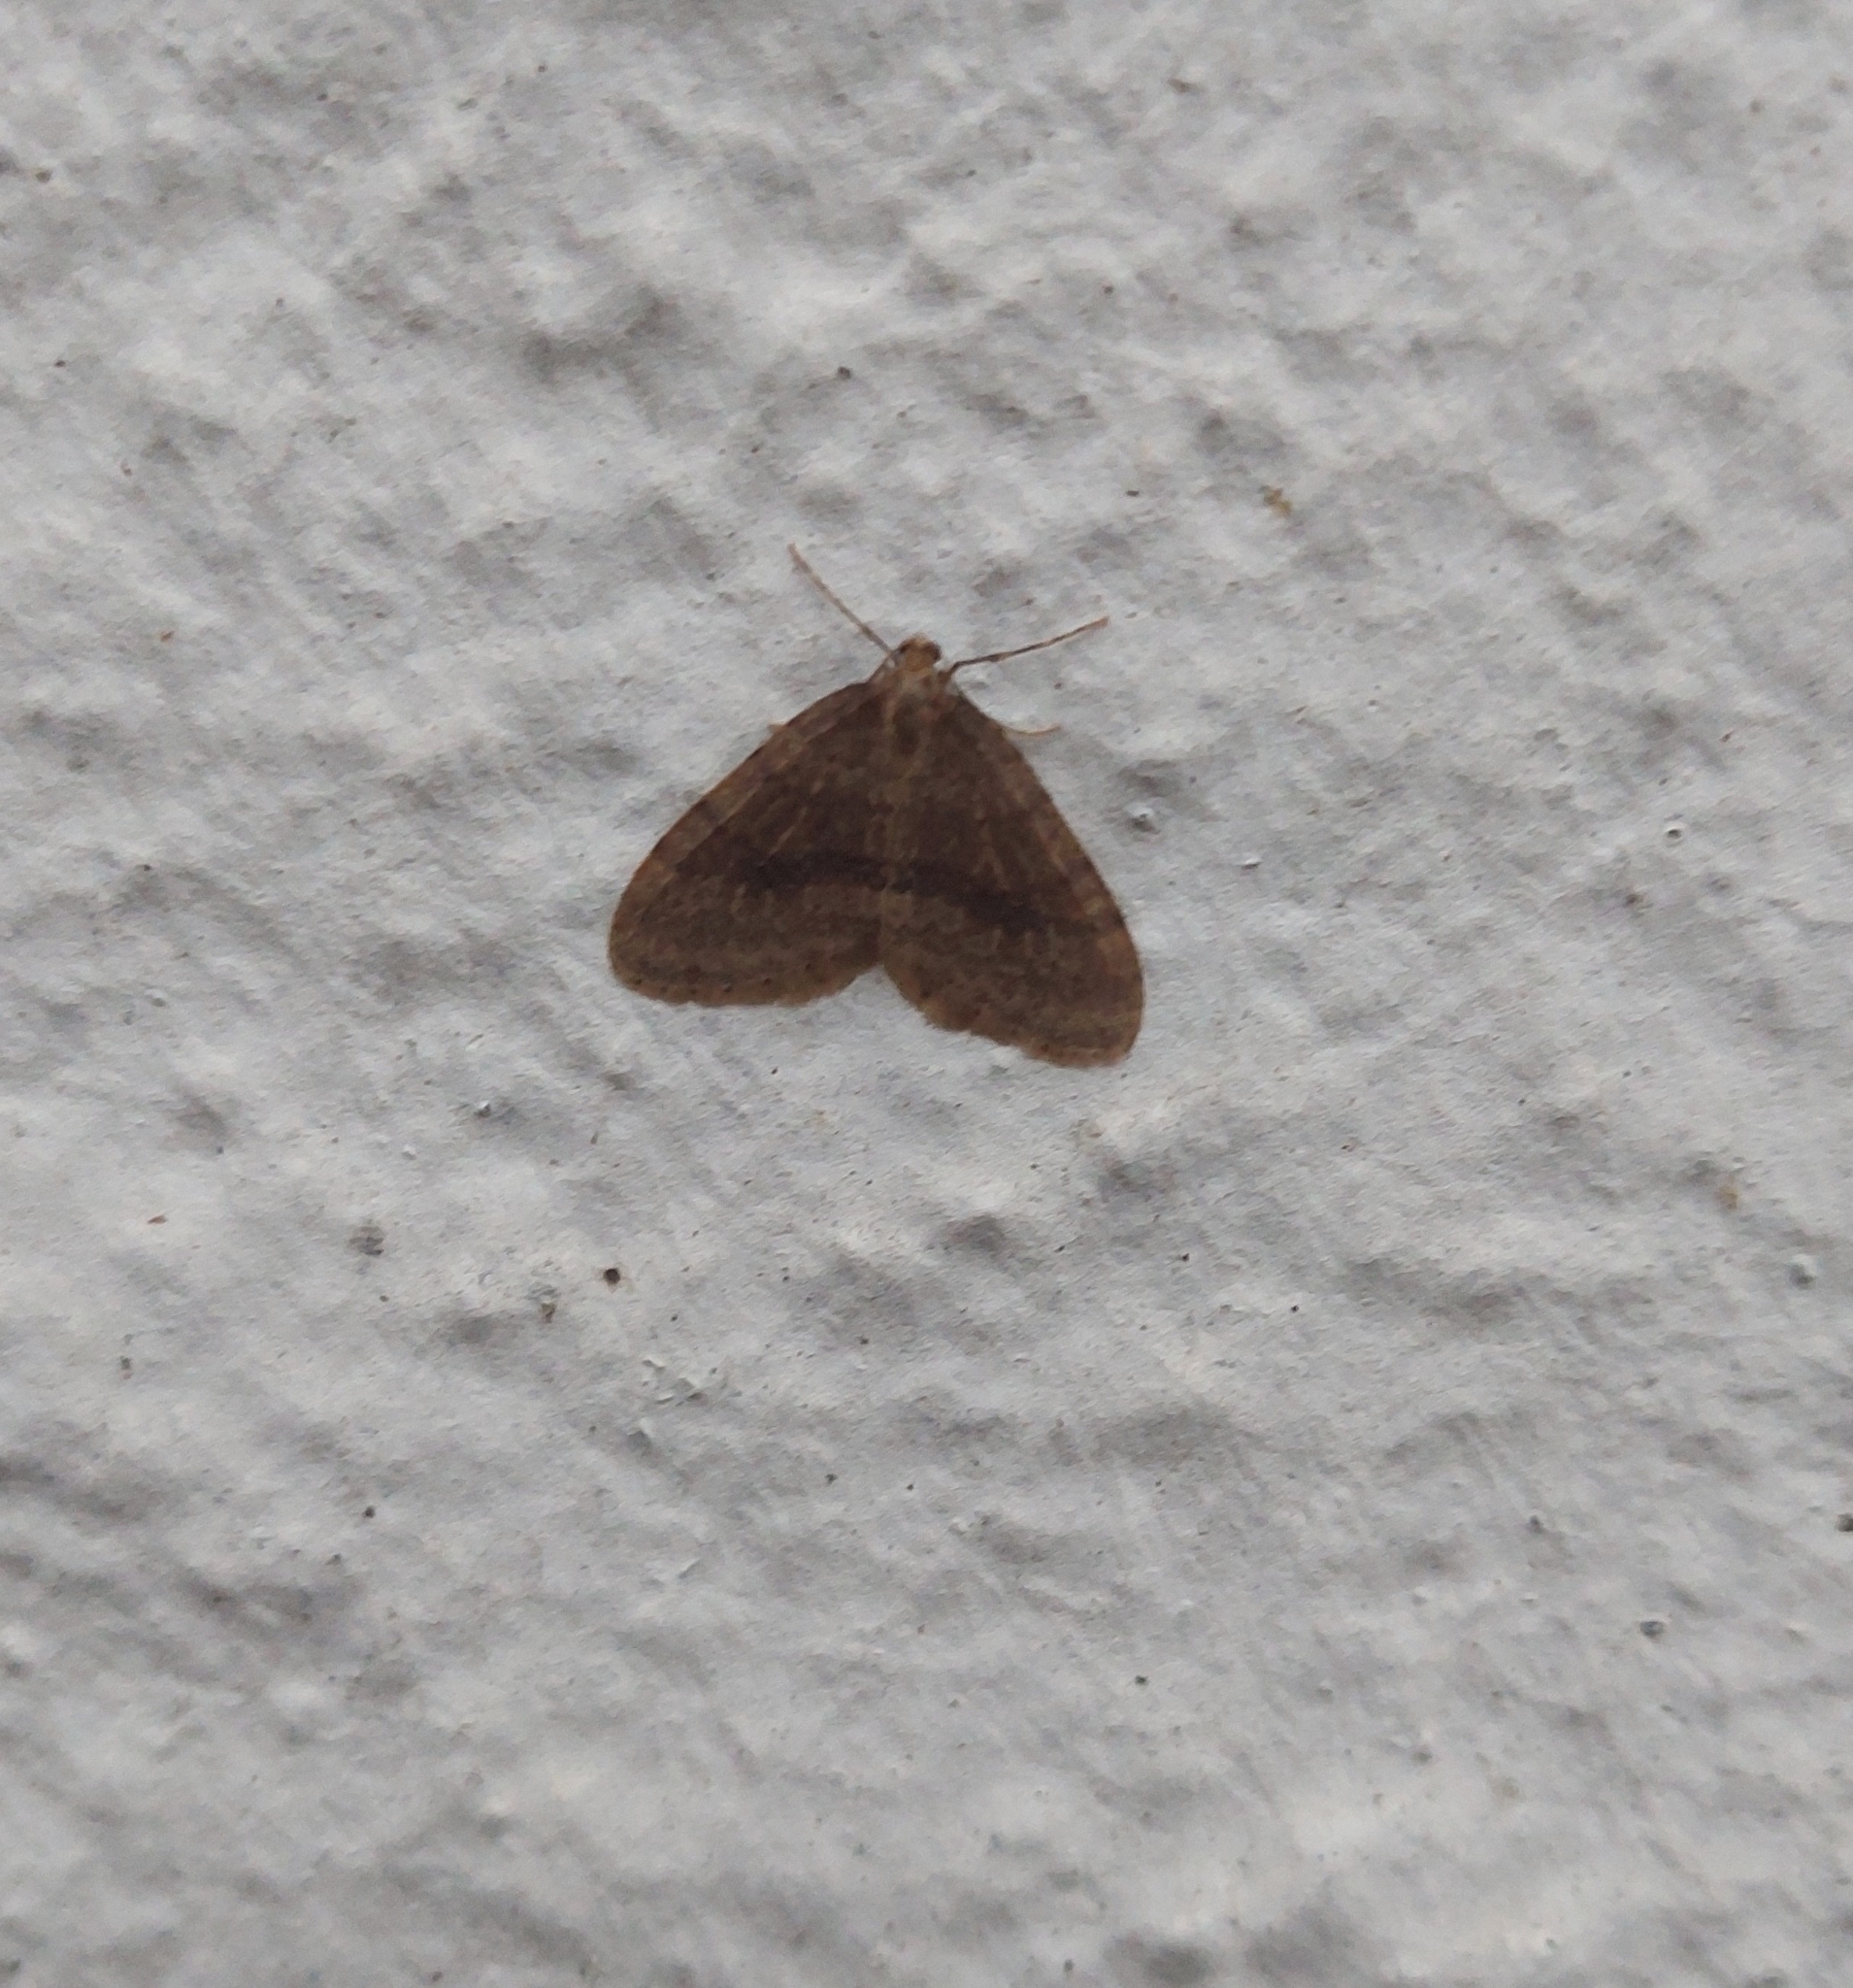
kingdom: Animalia
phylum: Arthropoda
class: Insecta
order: Lepidoptera
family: Geometridae
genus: Operophtera
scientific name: Operophtera brumata
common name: Winter moth
